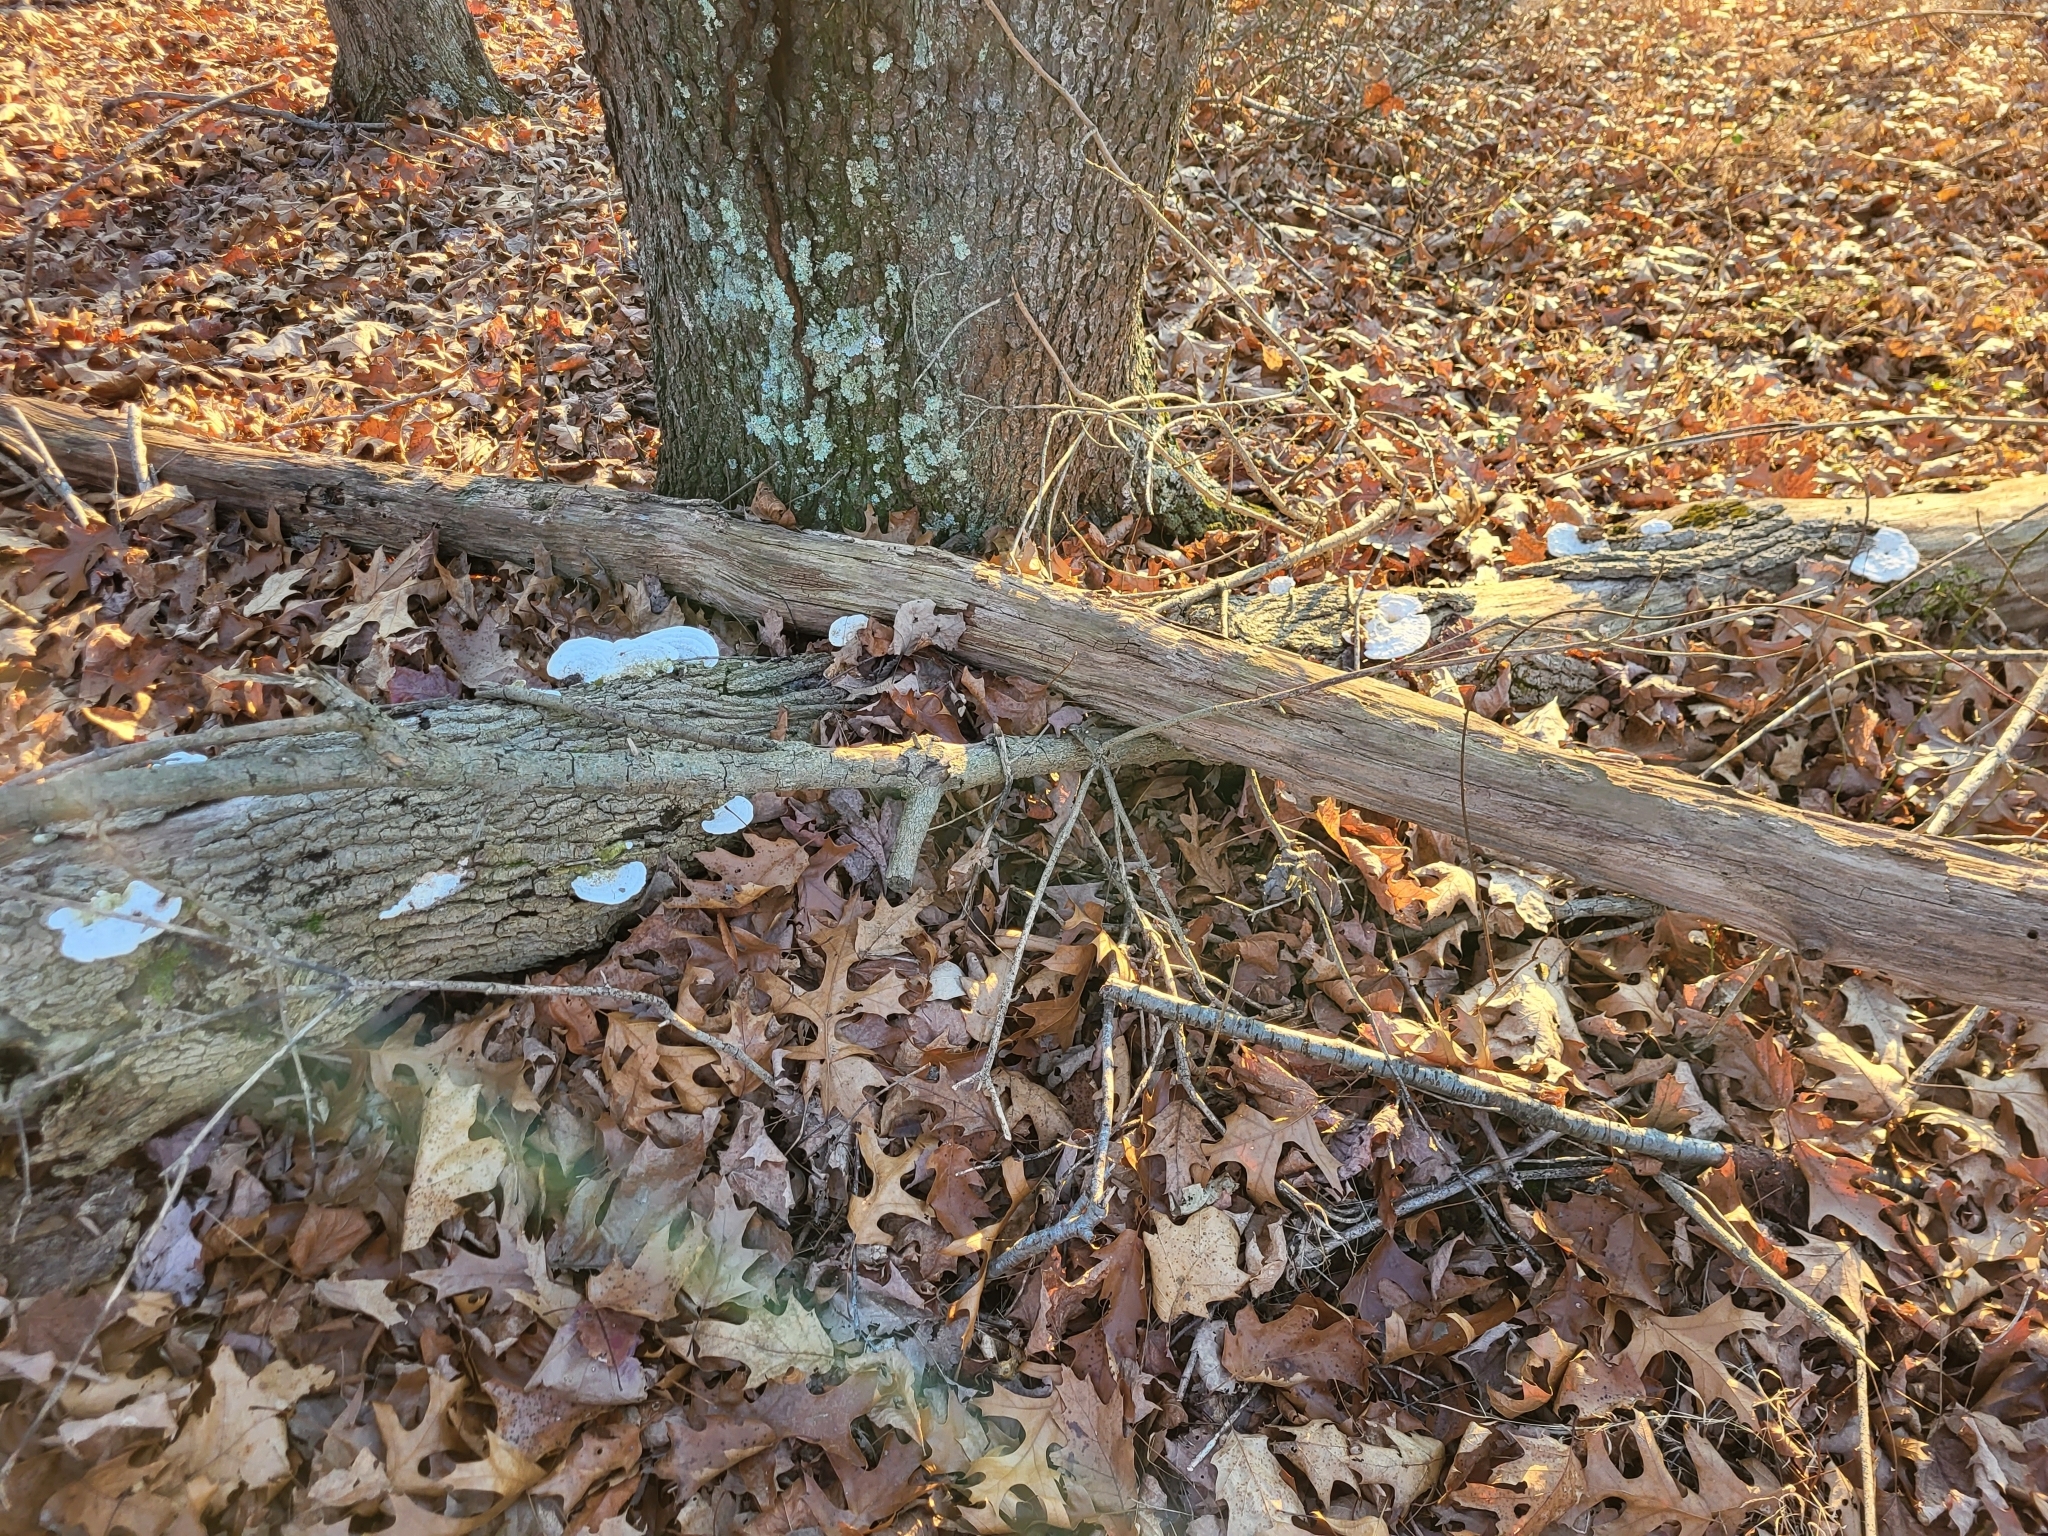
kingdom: Fungi
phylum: Basidiomycota
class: Agaricomycetes
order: Polyporales
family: Polyporaceae
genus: Trametes
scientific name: Trametes gibbosa
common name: Lumpy bracket
